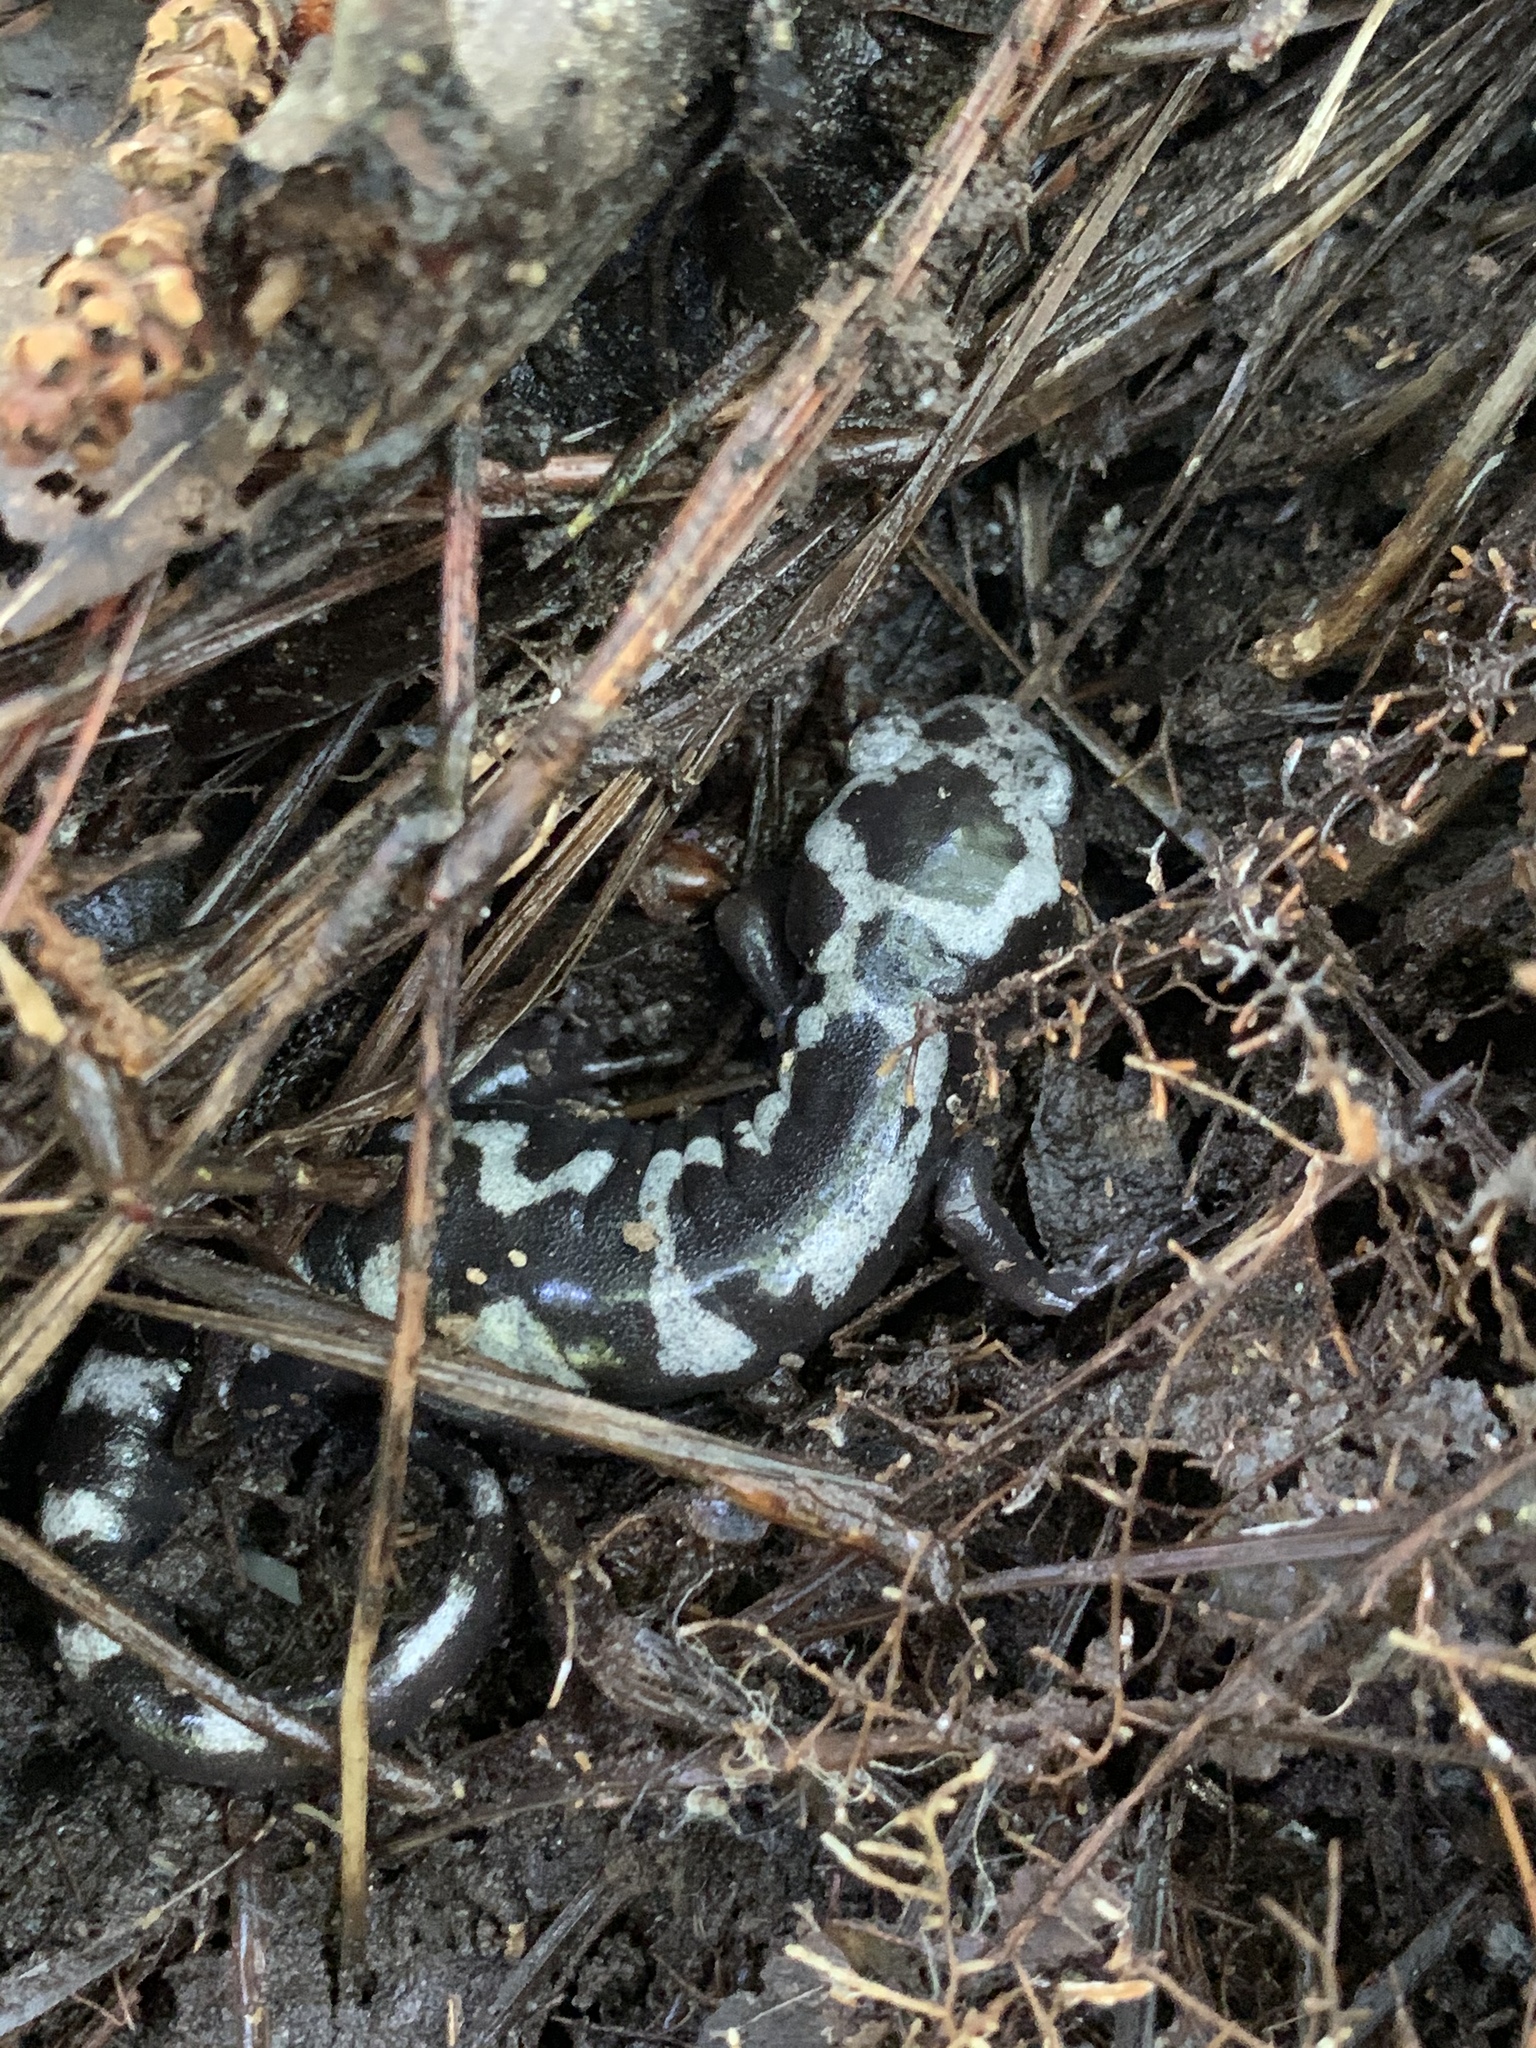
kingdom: Animalia
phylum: Chordata
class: Amphibia
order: Caudata
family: Ambystomatidae
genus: Ambystoma
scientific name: Ambystoma opacum
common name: Marbled salamander
